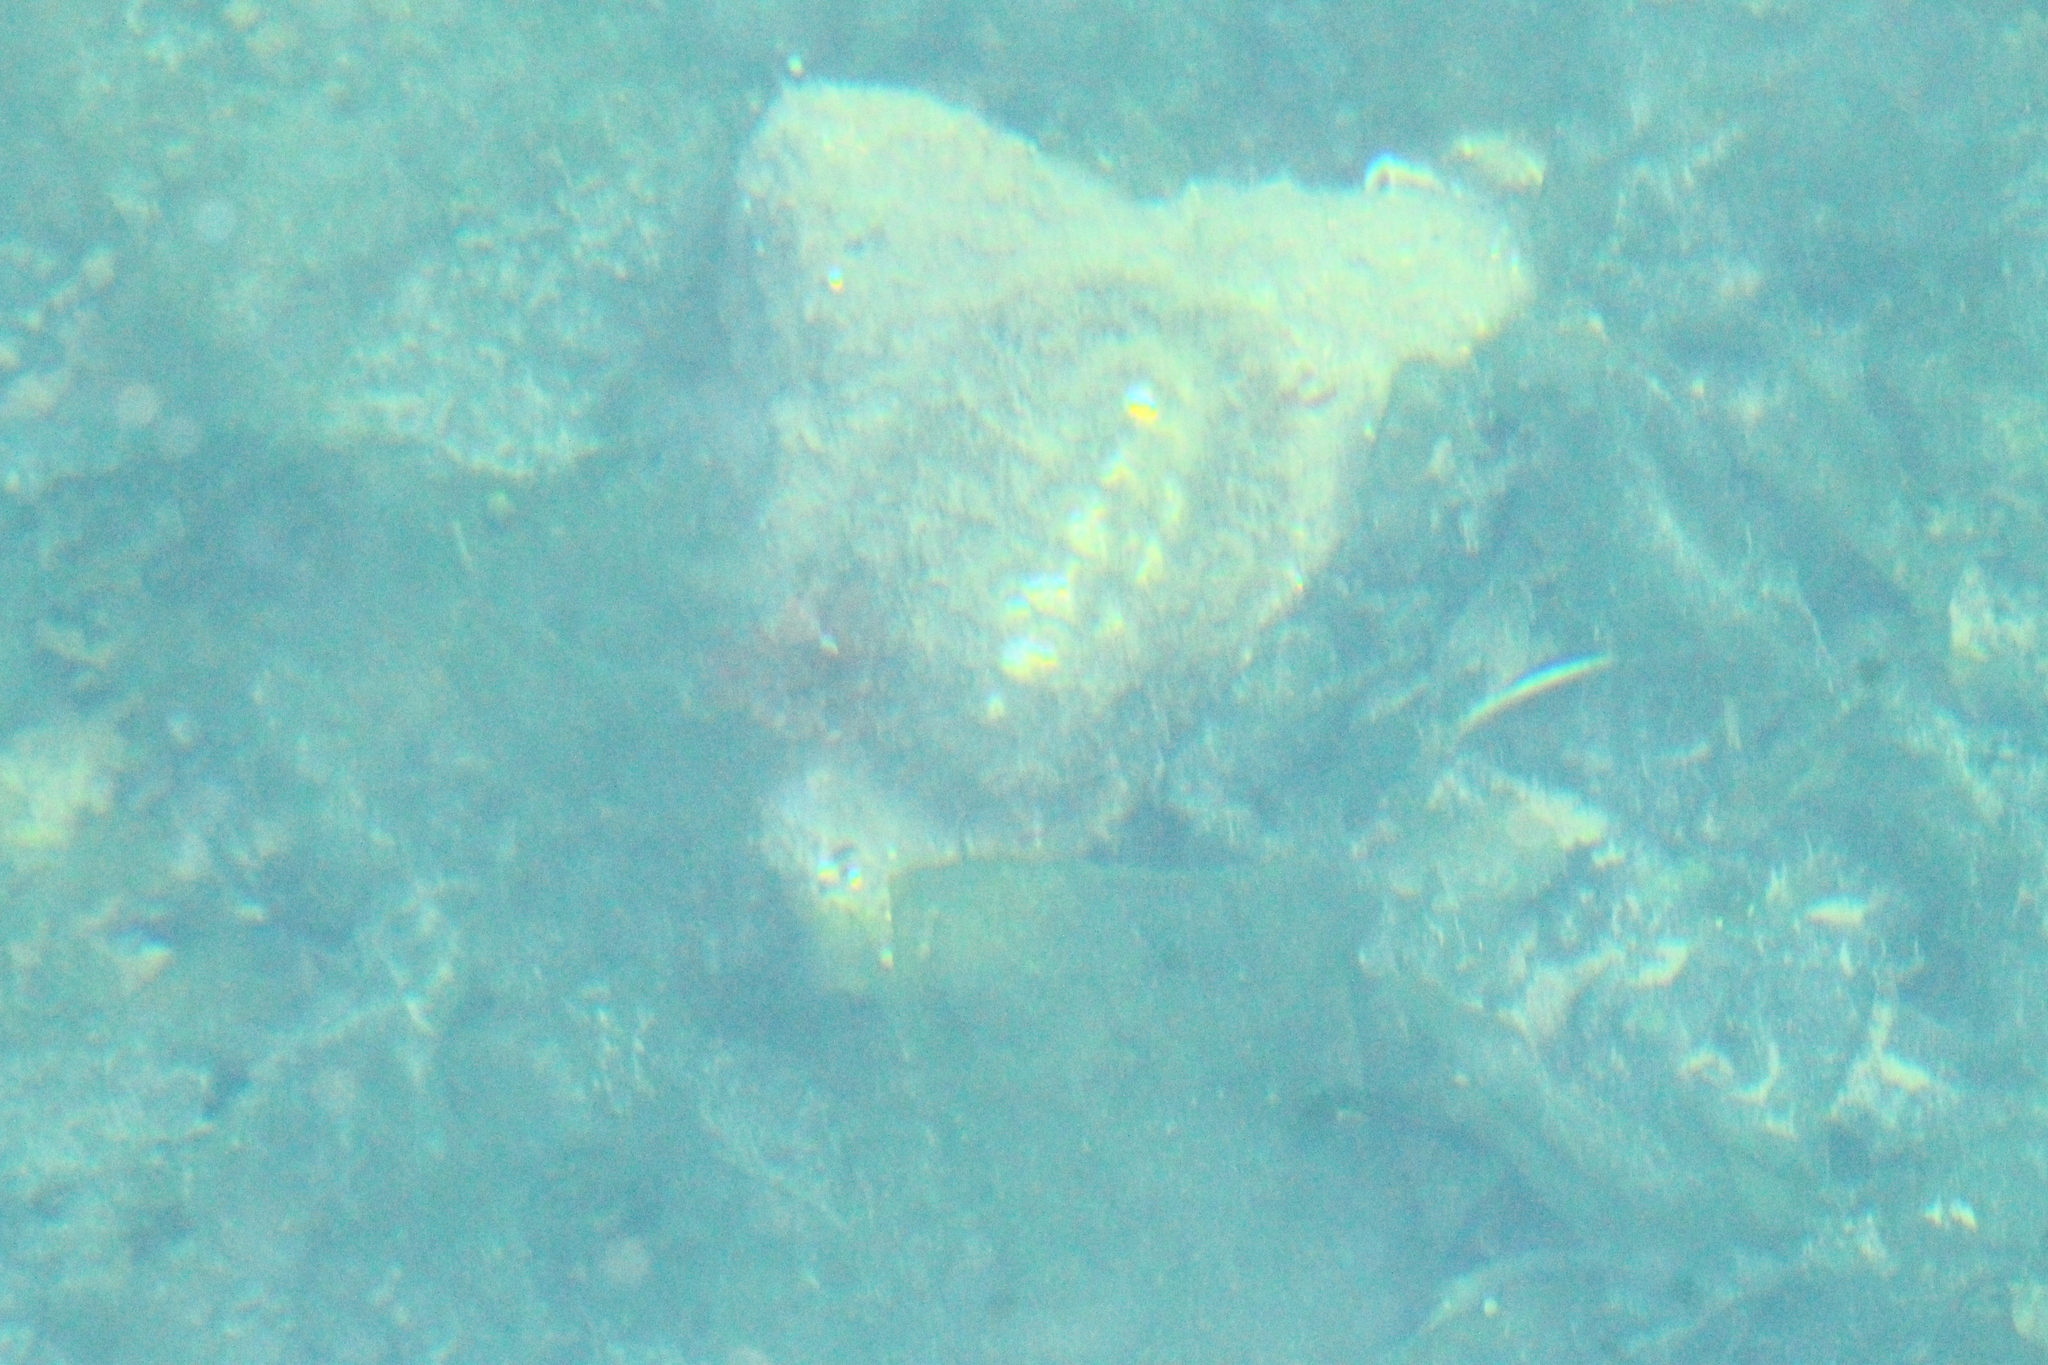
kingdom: Animalia
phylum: Mollusca
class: Polyplacophora
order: Chitonida
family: Mopaliidae
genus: Plaxiphora
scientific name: Plaxiphora aurata
